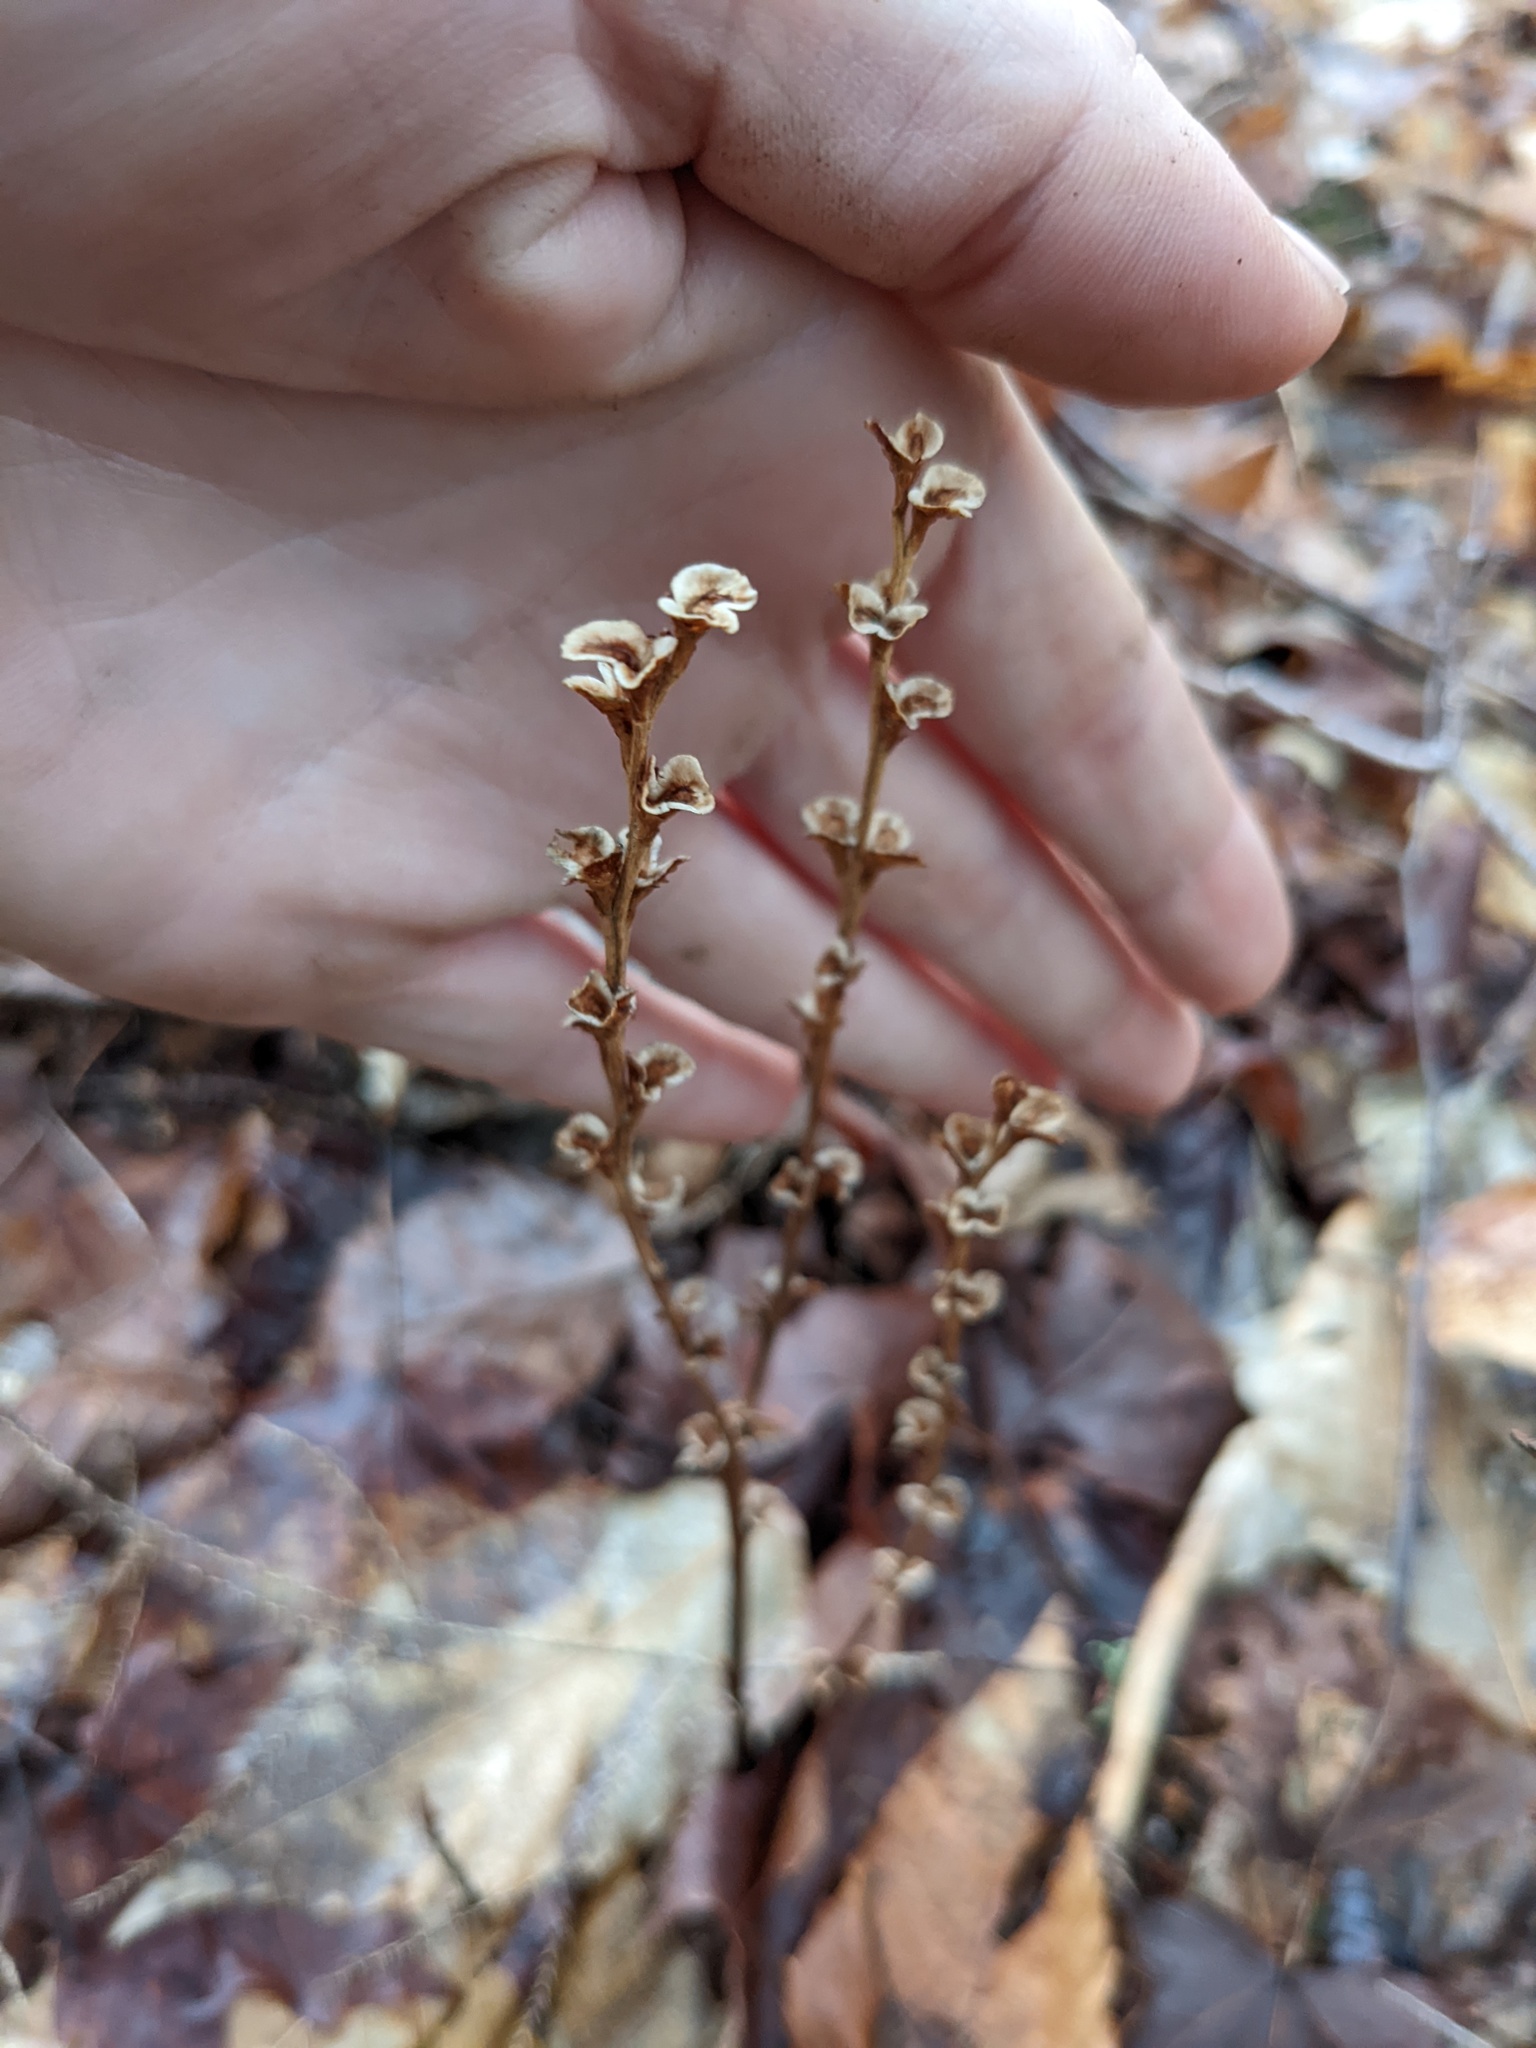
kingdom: Plantae
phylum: Tracheophyta
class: Magnoliopsida
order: Lamiales
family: Orobanchaceae
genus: Epifagus
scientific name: Epifagus virginiana
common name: Beechdrops
